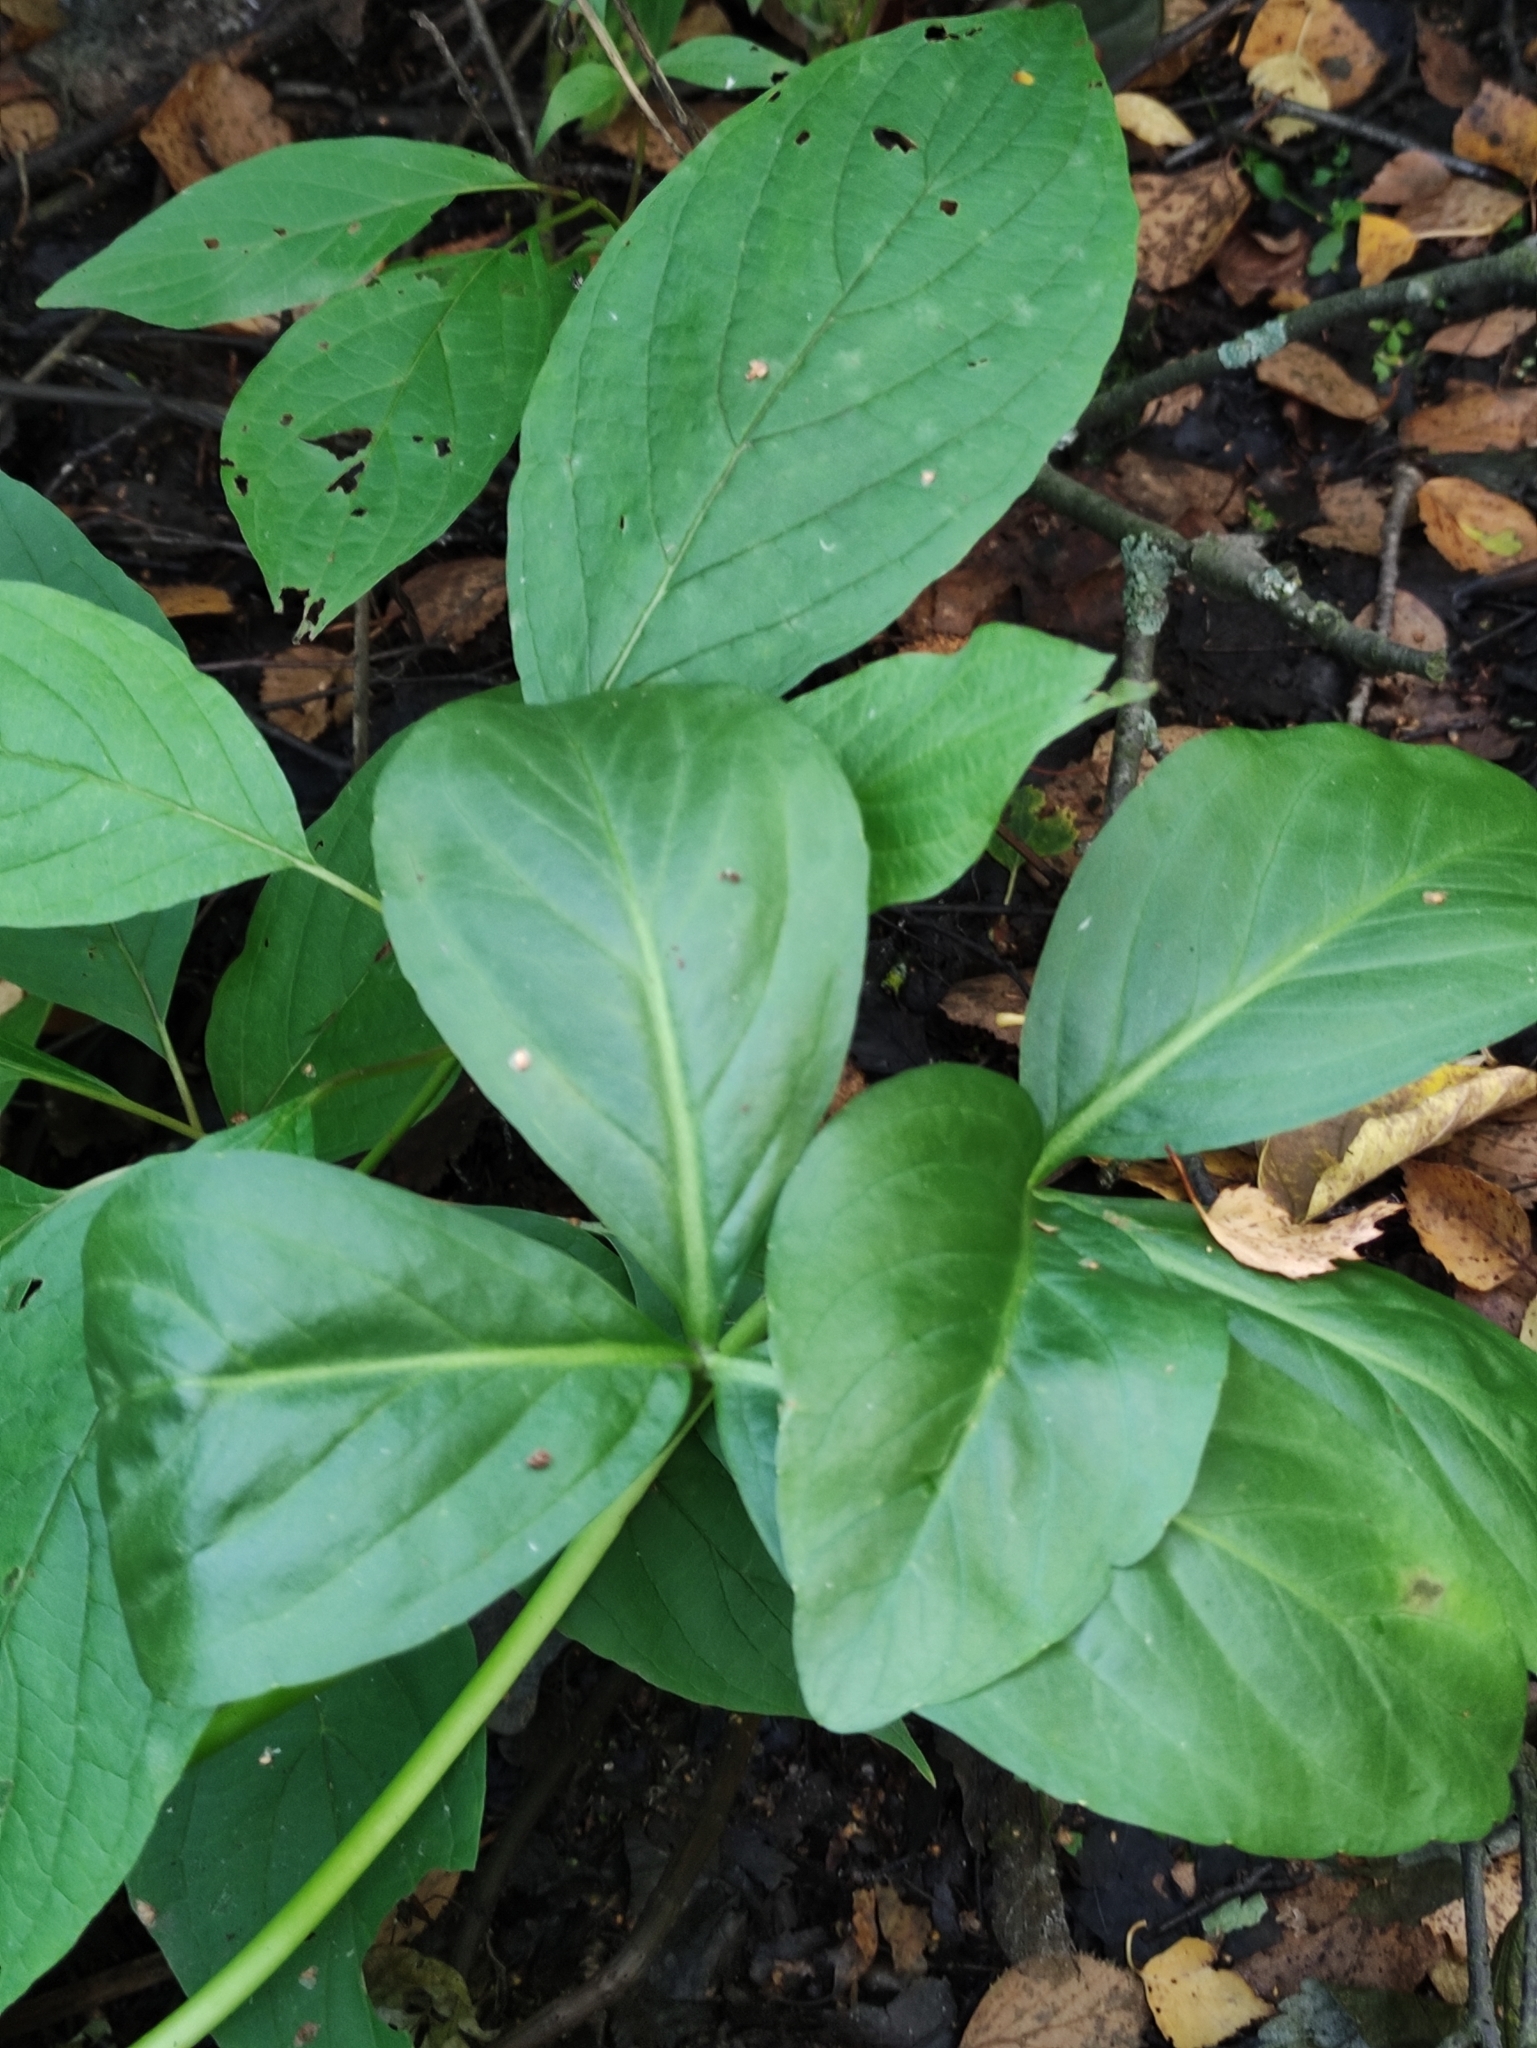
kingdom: Plantae
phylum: Tracheophyta
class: Magnoliopsida
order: Asterales
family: Menyanthaceae
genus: Menyanthes
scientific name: Menyanthes trifoliata
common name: Bogbean
